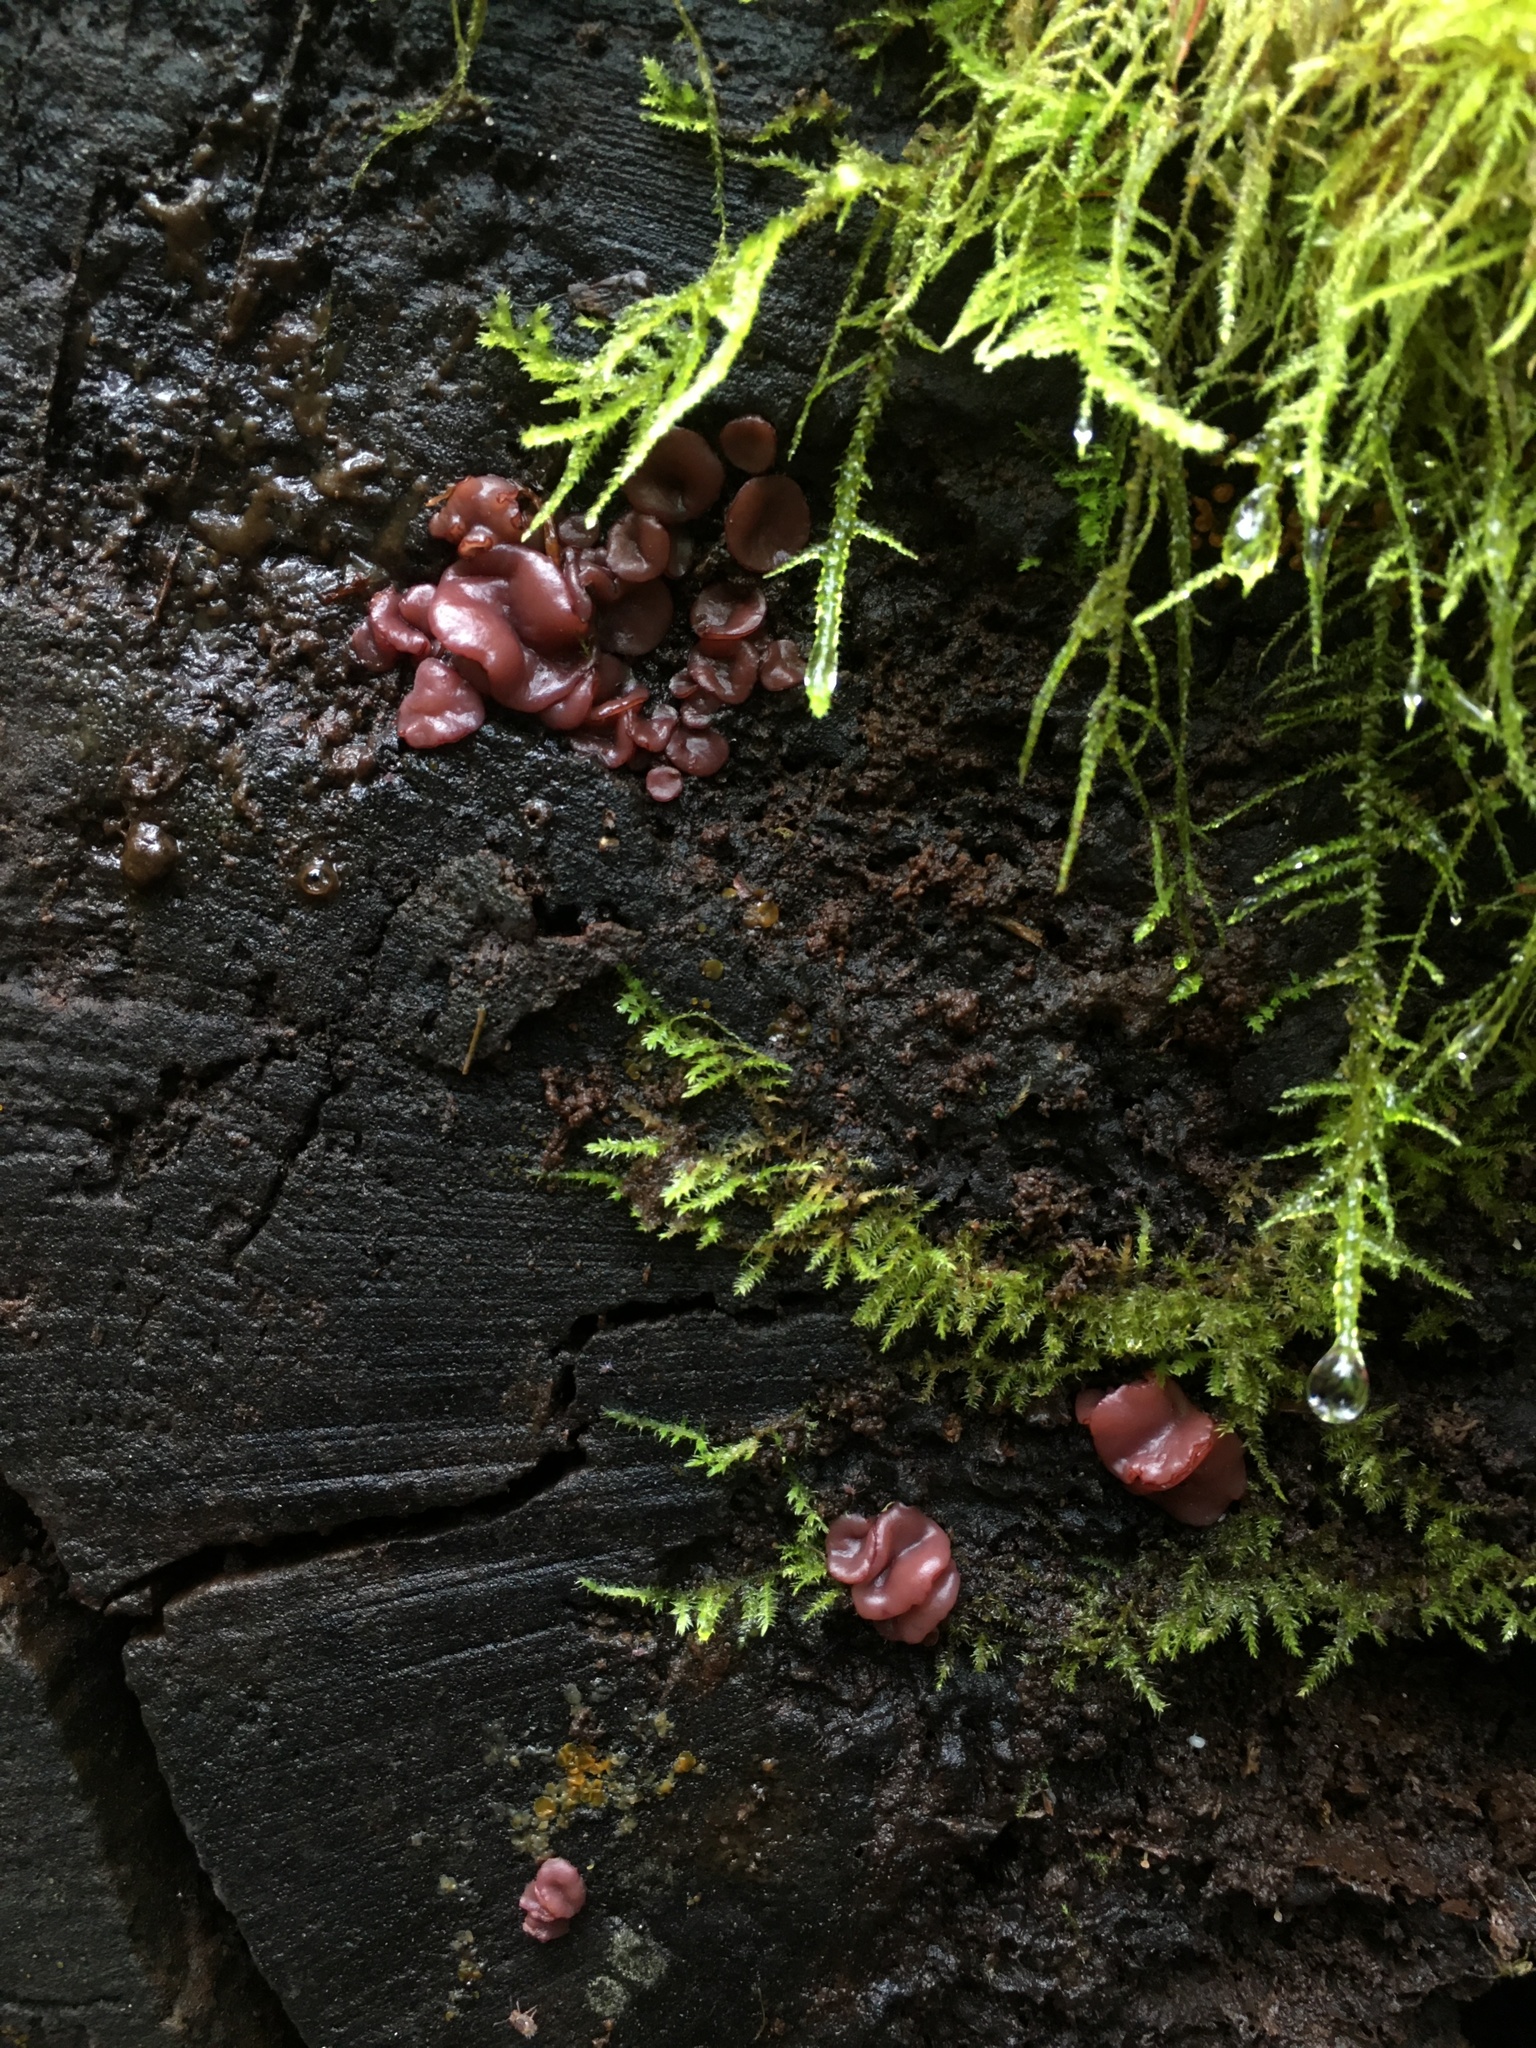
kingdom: Fungi
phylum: Ascomycota
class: Leotiomycetes
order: Helotiales
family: Gelatinodiscaceae
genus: Ascocoryne
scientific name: Ascocoryne sarcoides
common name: Purple jellydisc
